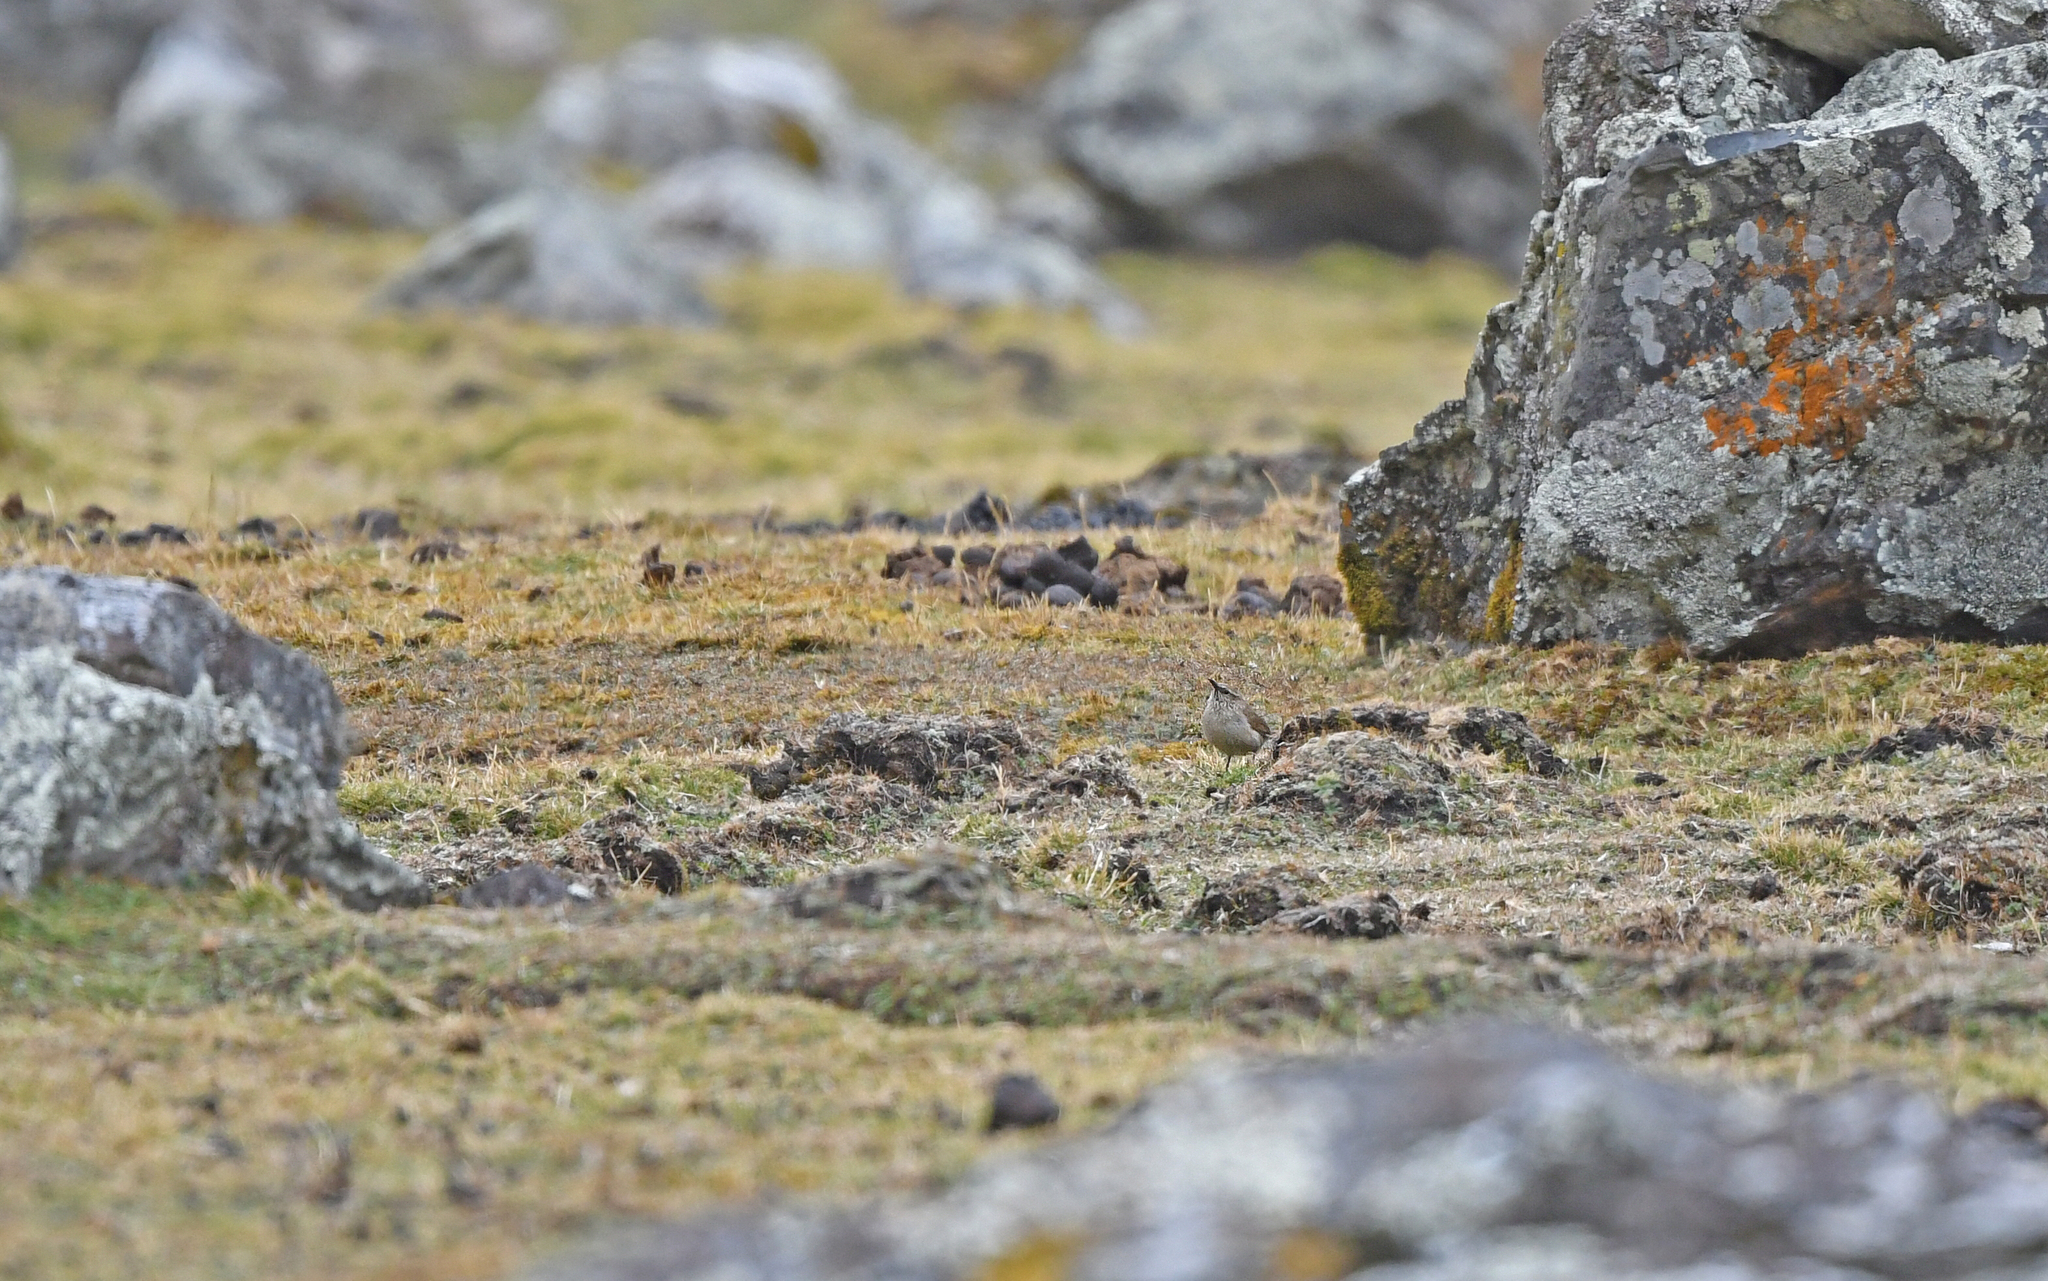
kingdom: Animalia
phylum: Chordata
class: Aves
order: Passeriformes
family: Furnariidae
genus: Asthenes
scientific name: Asthenes humilis
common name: Streak-throated canastero
